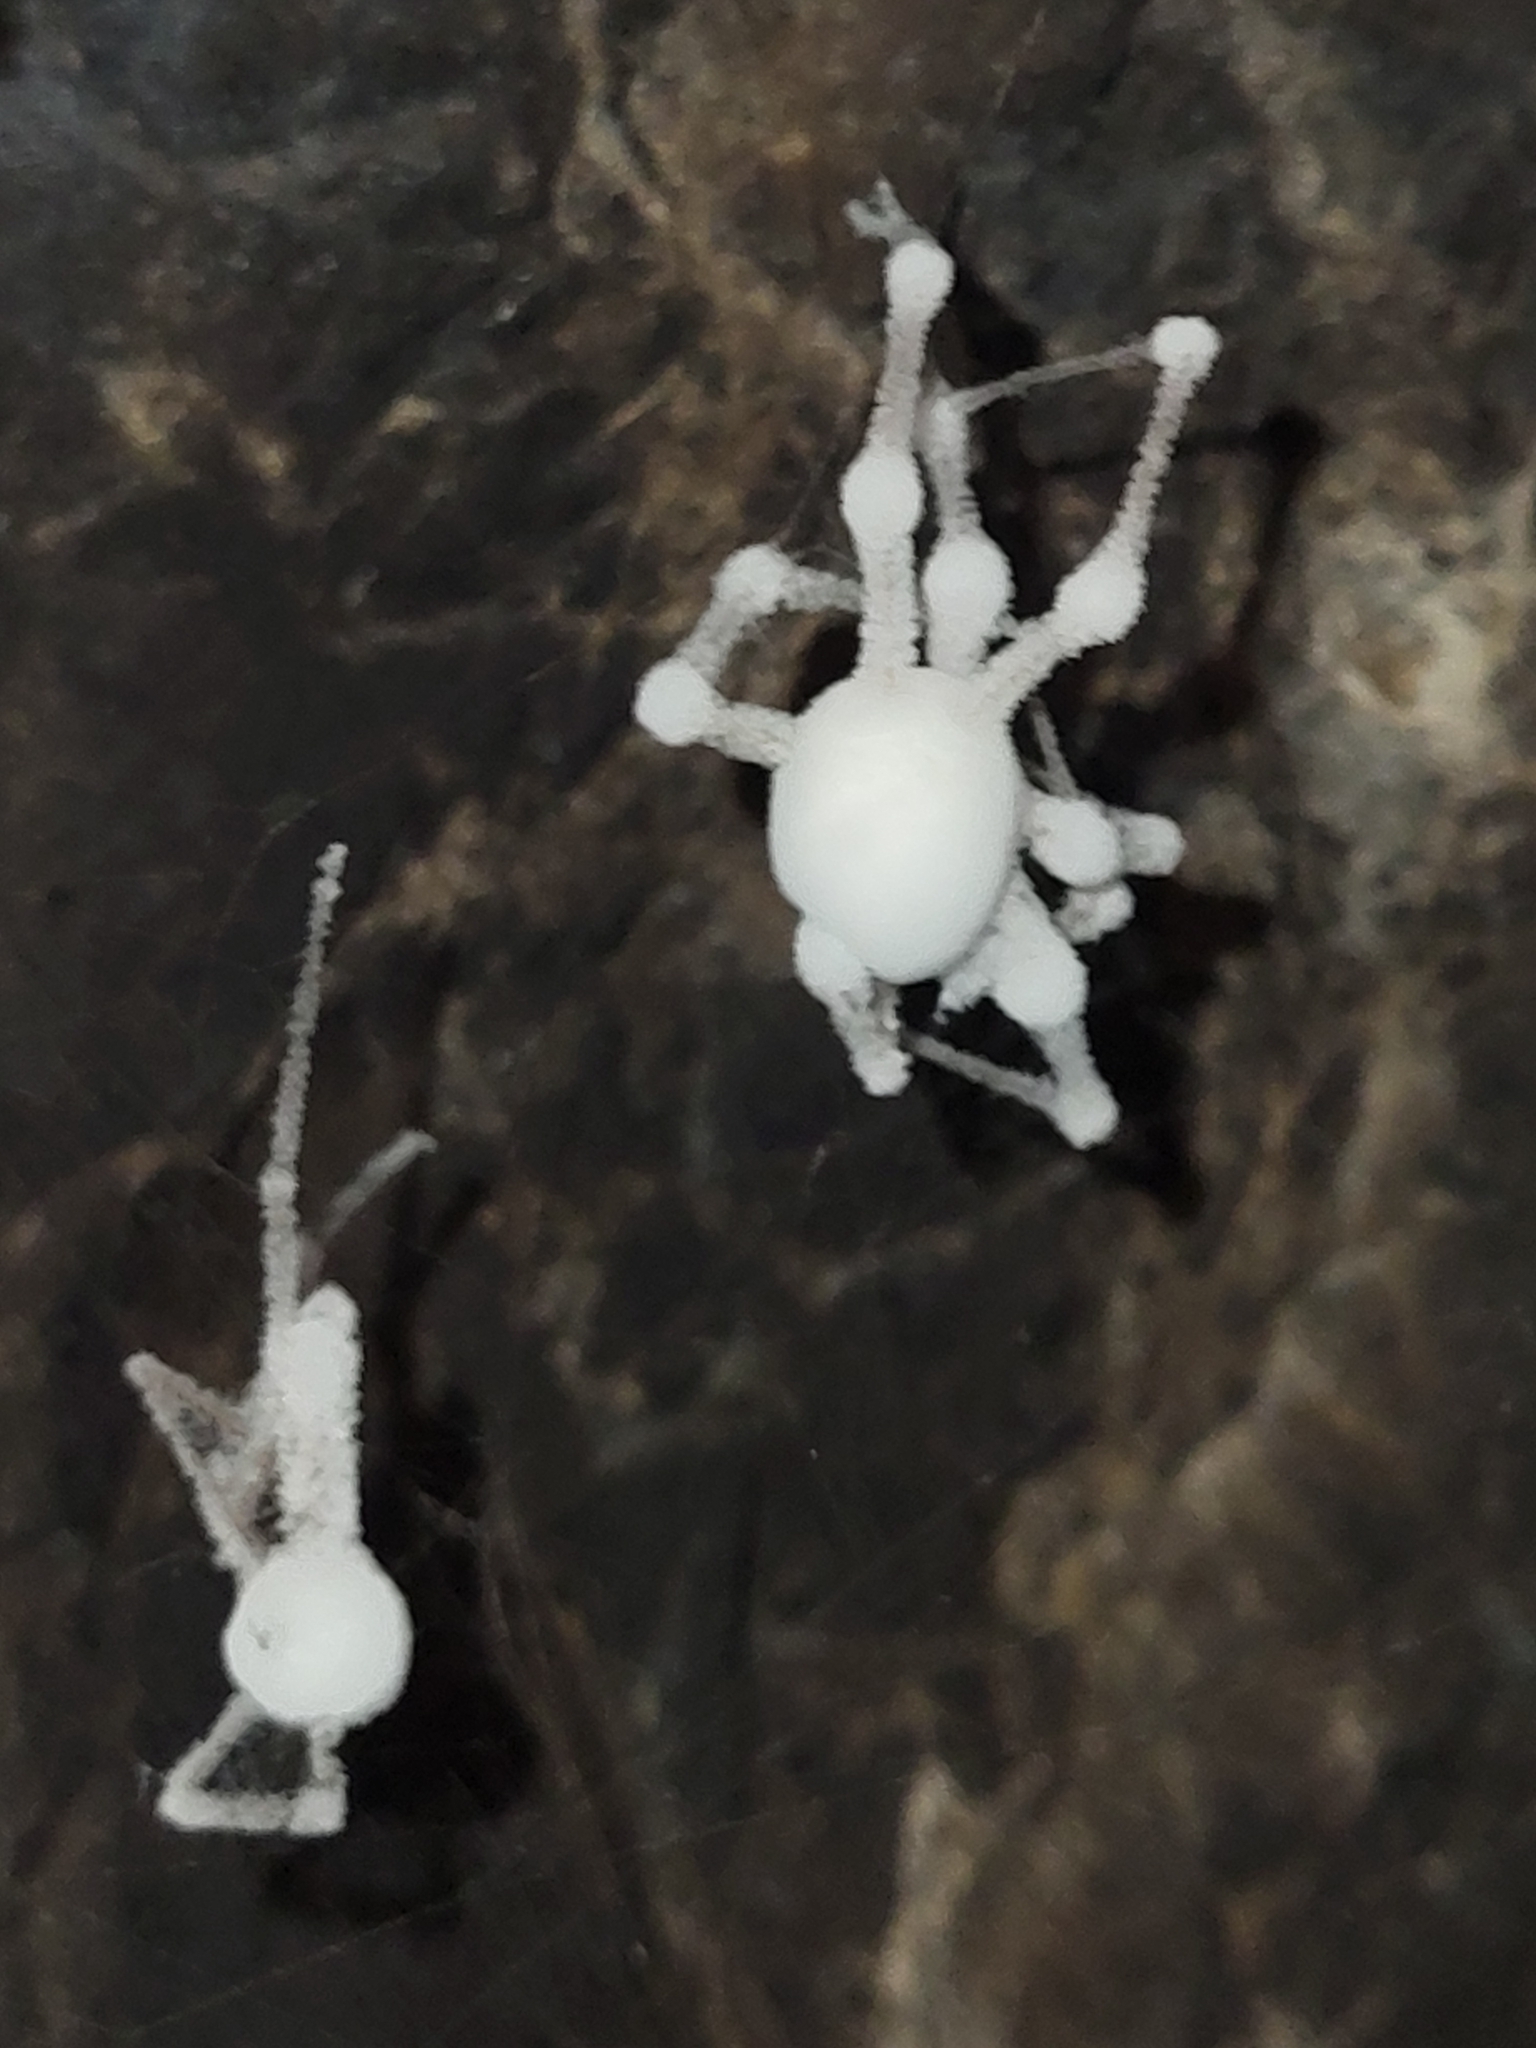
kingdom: Fungi
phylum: Ascomycota
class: Sordariomycetes
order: Hypocreales
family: Cordycipitaceae
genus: Lecanicillium
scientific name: Lecanicillium tenuipes
